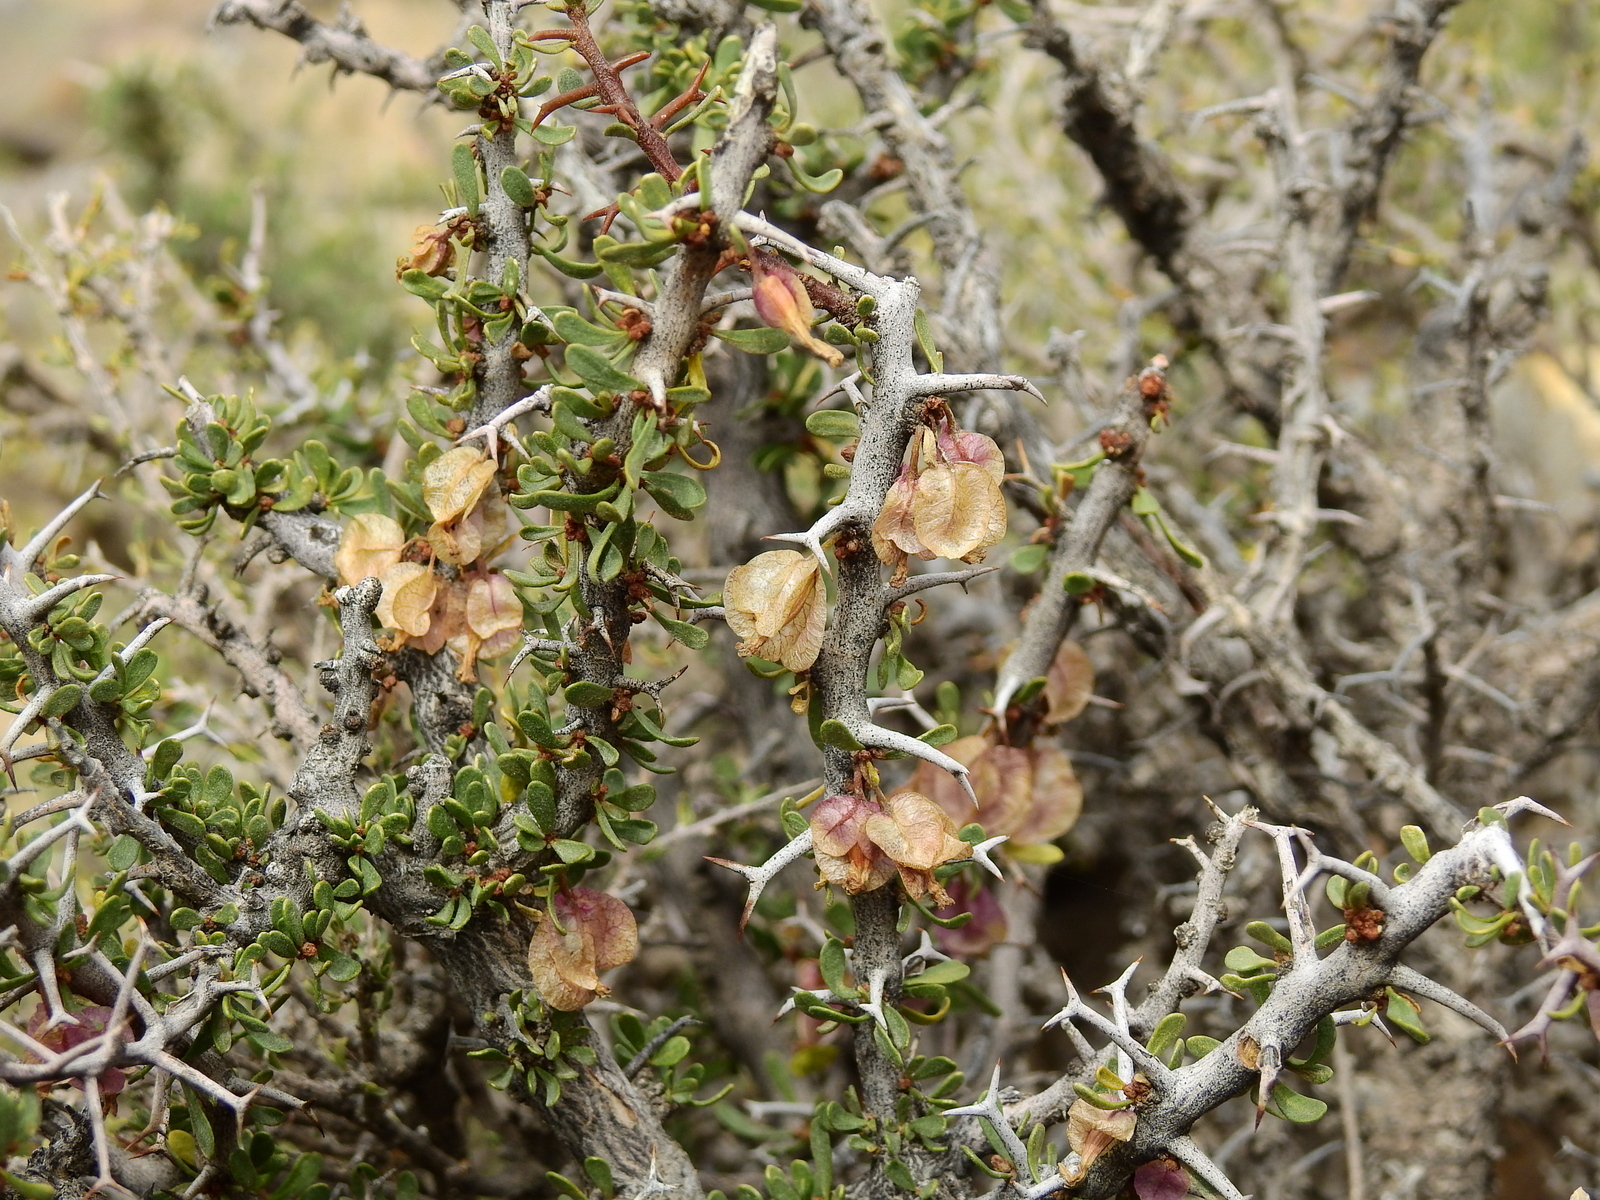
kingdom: Plantae
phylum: Tracheophyta
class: Magnoliopsida
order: Caryophyllales
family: Nyctaginaceae
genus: Bougainvillea
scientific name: Bougainvillea spinosa
